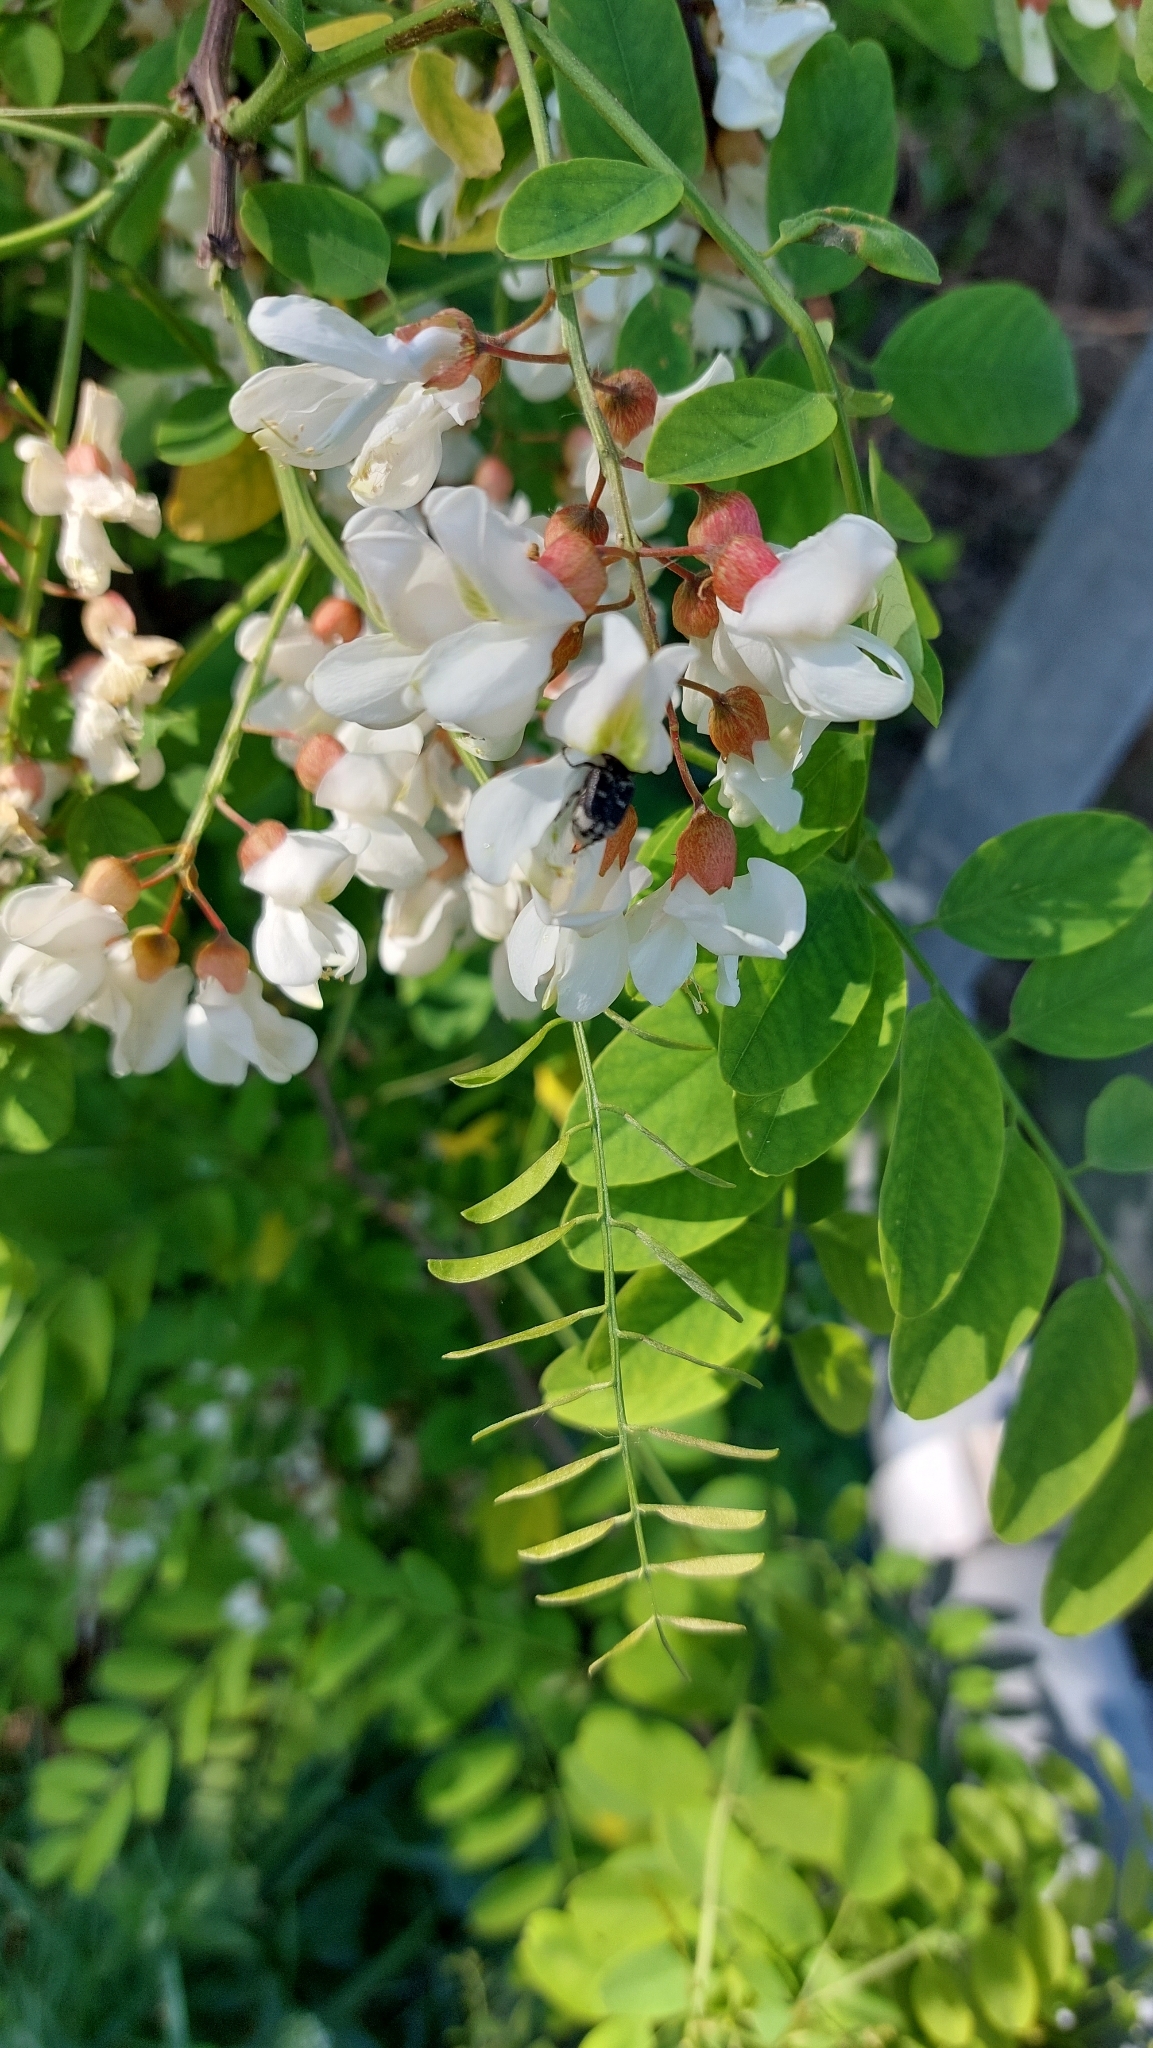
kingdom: Plantae
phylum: Tracheophyta
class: Magnoliopsida
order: Fabales
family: Fabaceae
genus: Robinia
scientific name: Robinia pseudoacacia
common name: Black locust
